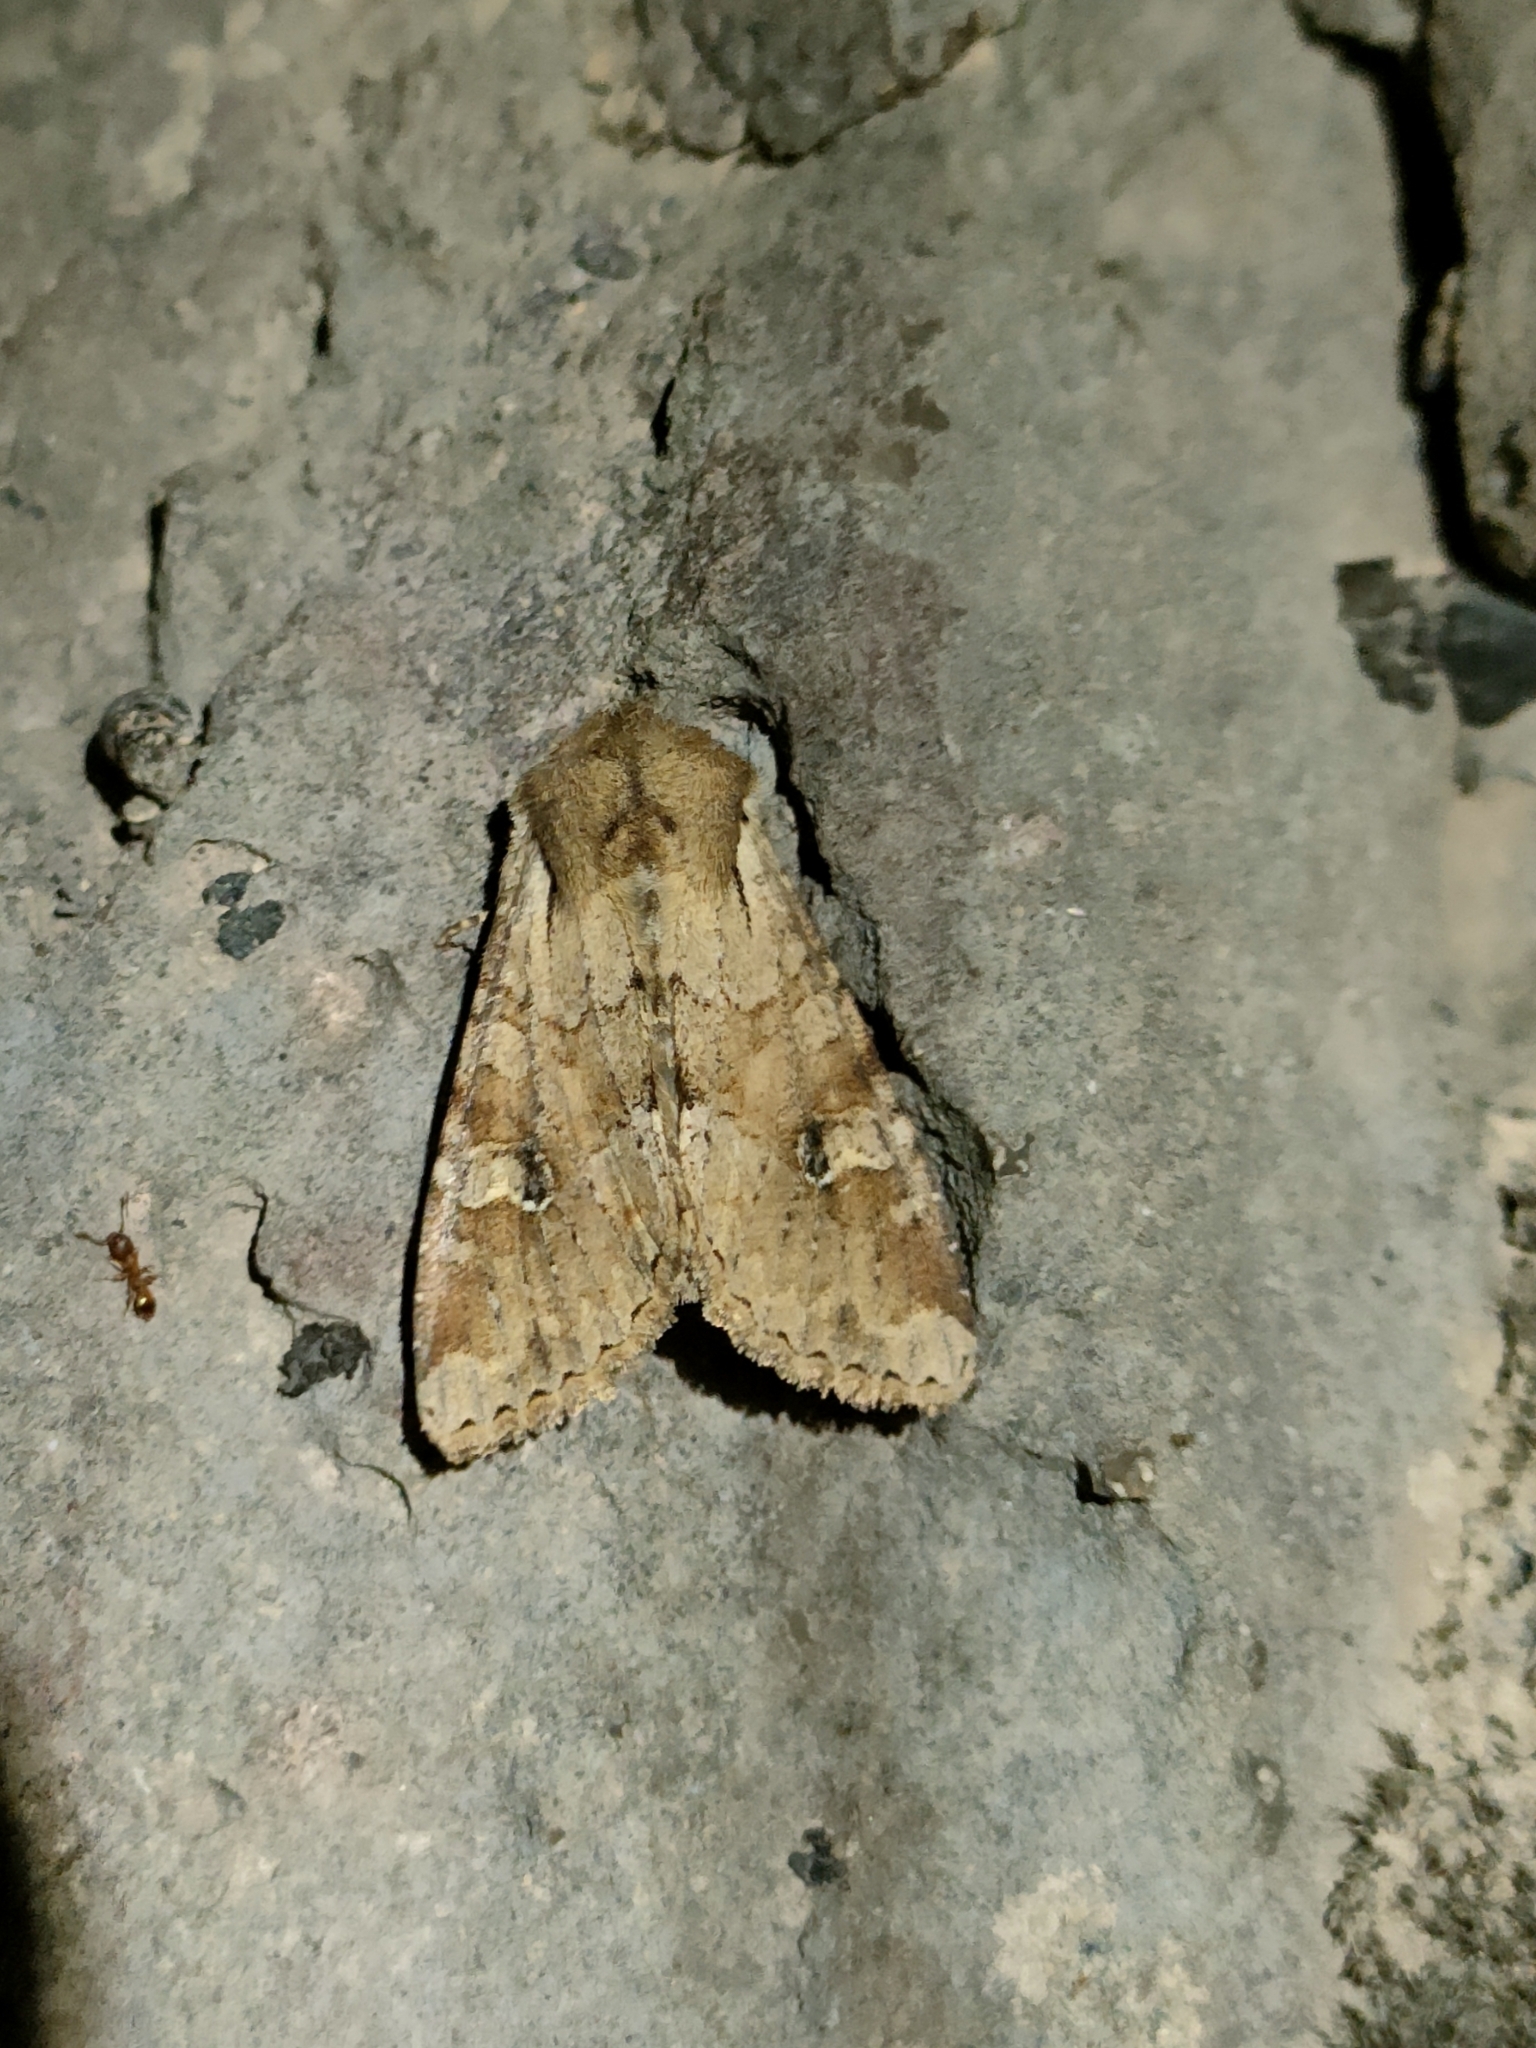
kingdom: Animalia
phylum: Arthropoda
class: Insecta
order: Lepidoptera
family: Noctuidae
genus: Apamea
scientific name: Apamea sordens
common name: Rustic shoulder-knot
